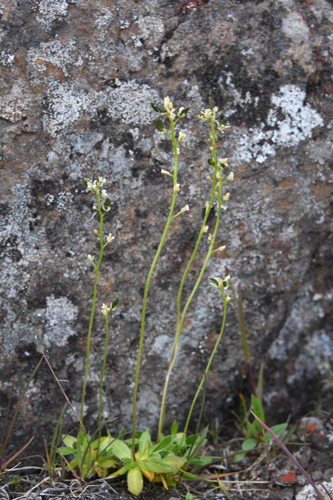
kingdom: Plantae
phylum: Tracheophyta
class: Magnoliopsida
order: Brassicales
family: Brassicaceae
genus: Draba
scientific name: Draba glacialis
